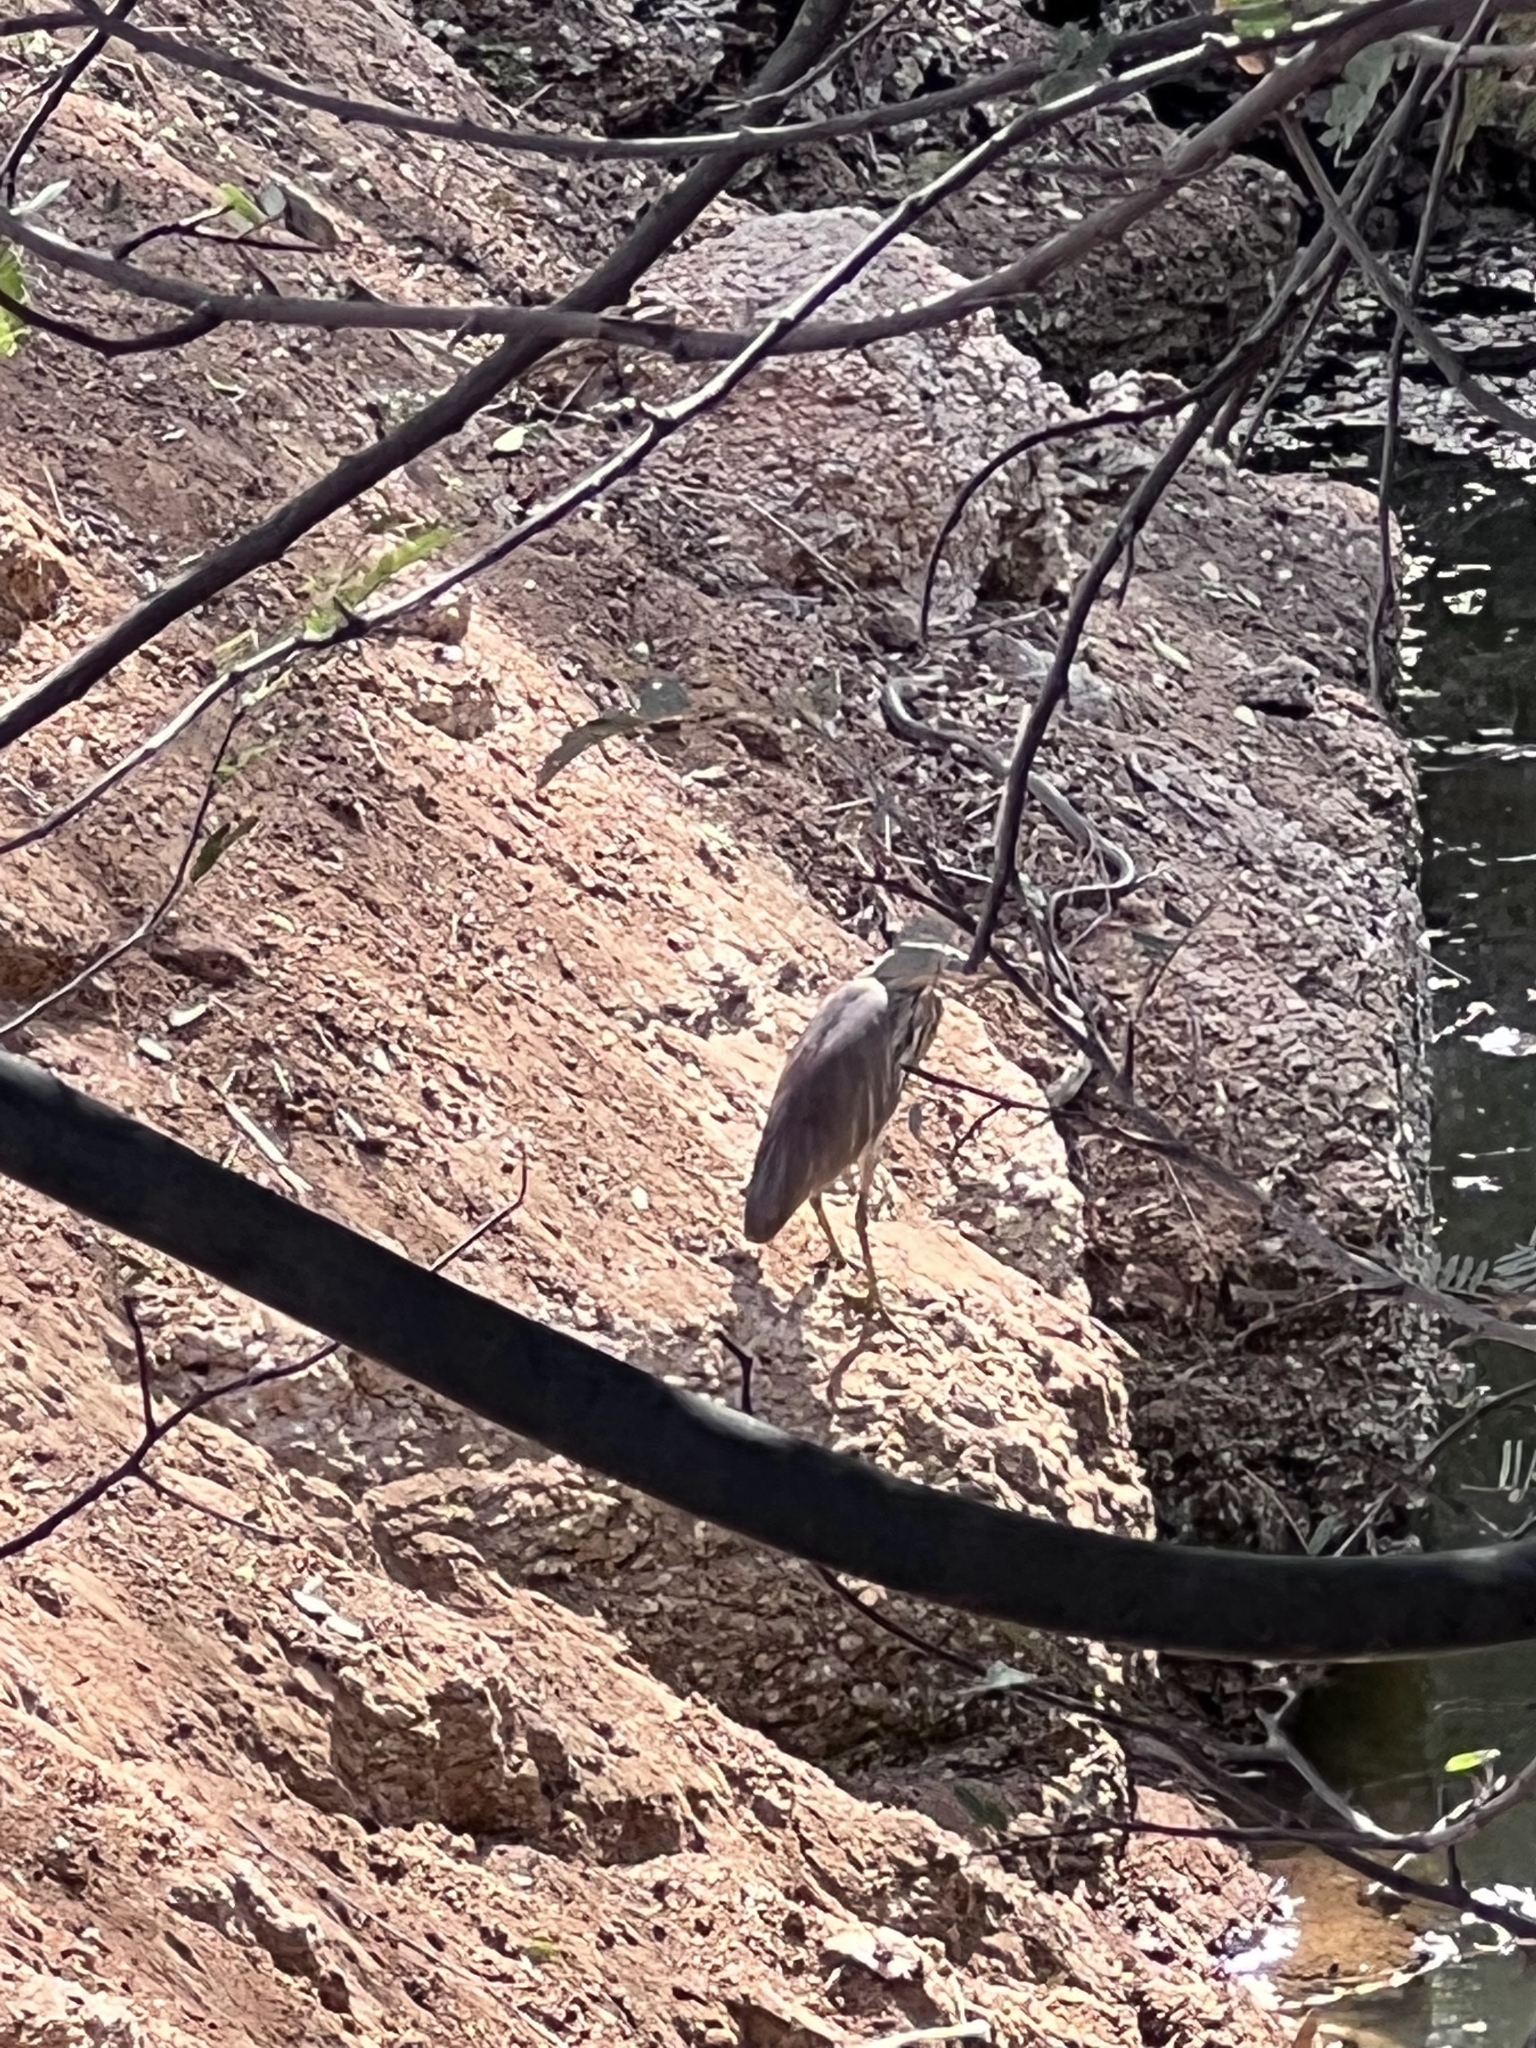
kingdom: Animalia
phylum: Chordata
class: Aves
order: Pelecaniformes
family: Ardeidae
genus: Ardeola
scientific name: Ardeola grayii
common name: Indian pond heron
